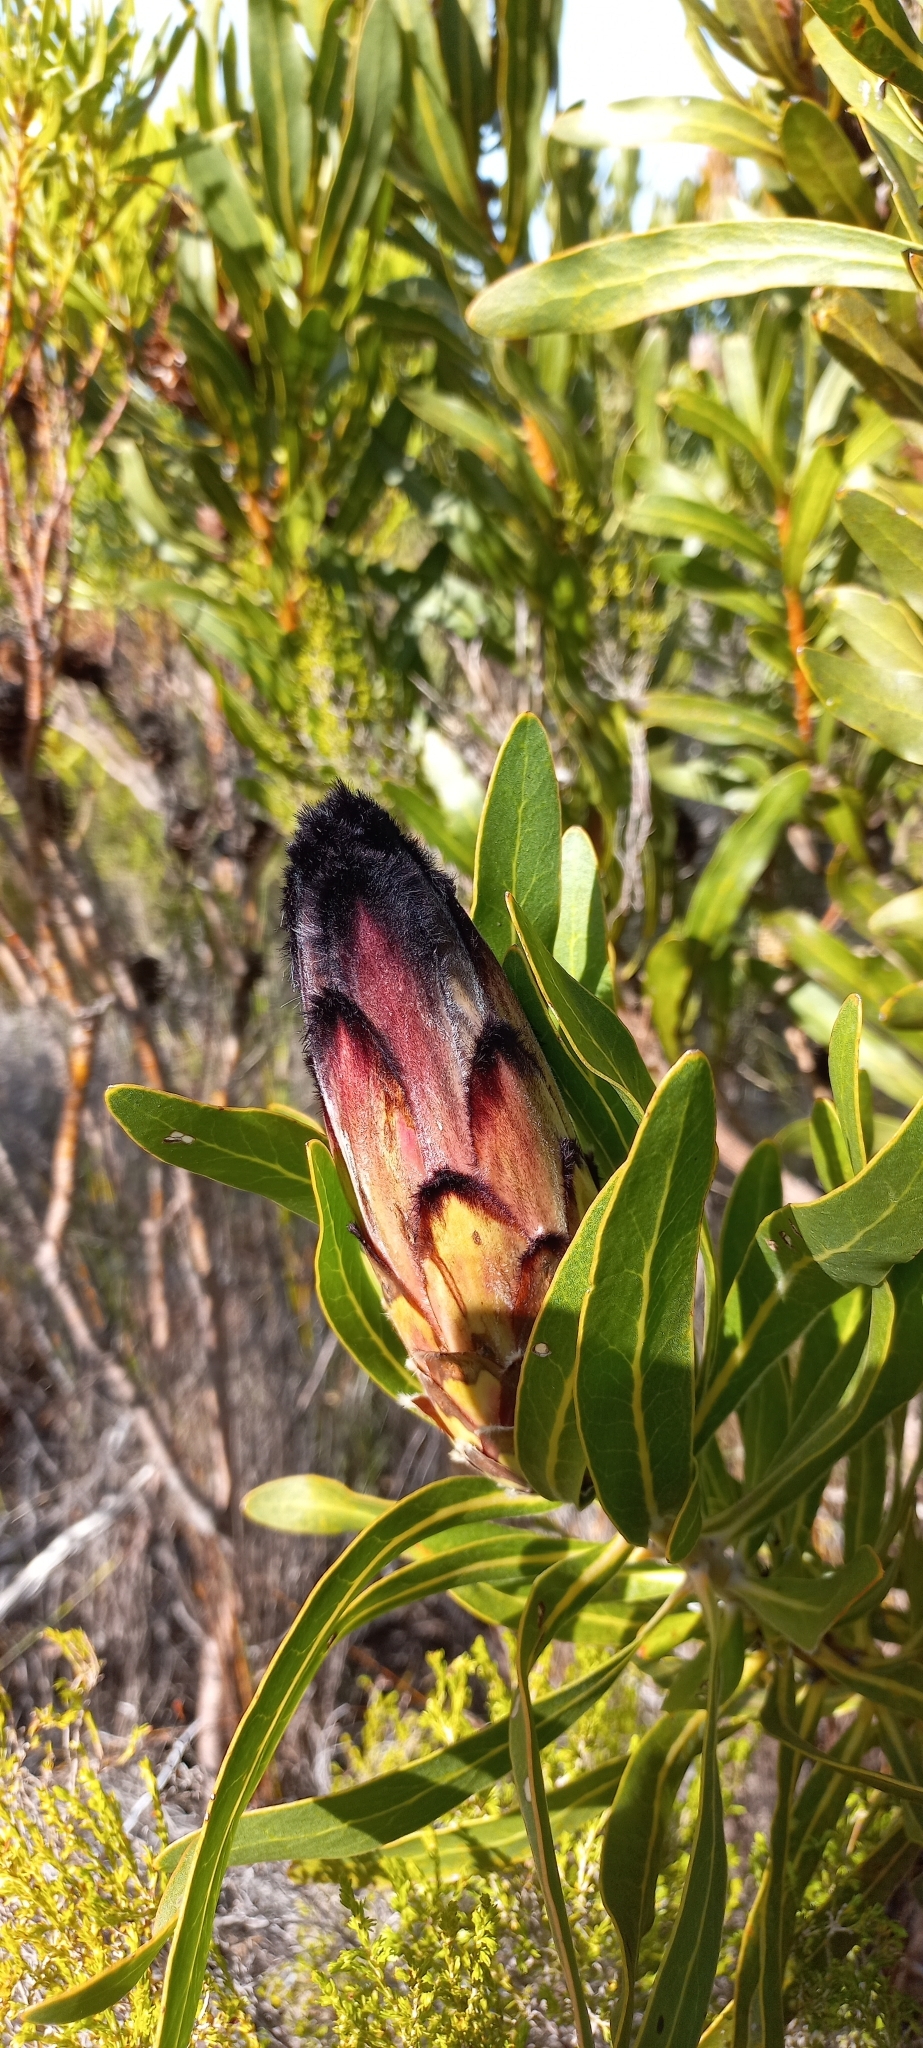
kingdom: Plantae
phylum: Tracheophyta
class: Magnoliopsida
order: Proteales
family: Proteaceae
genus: Protea
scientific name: Protea
